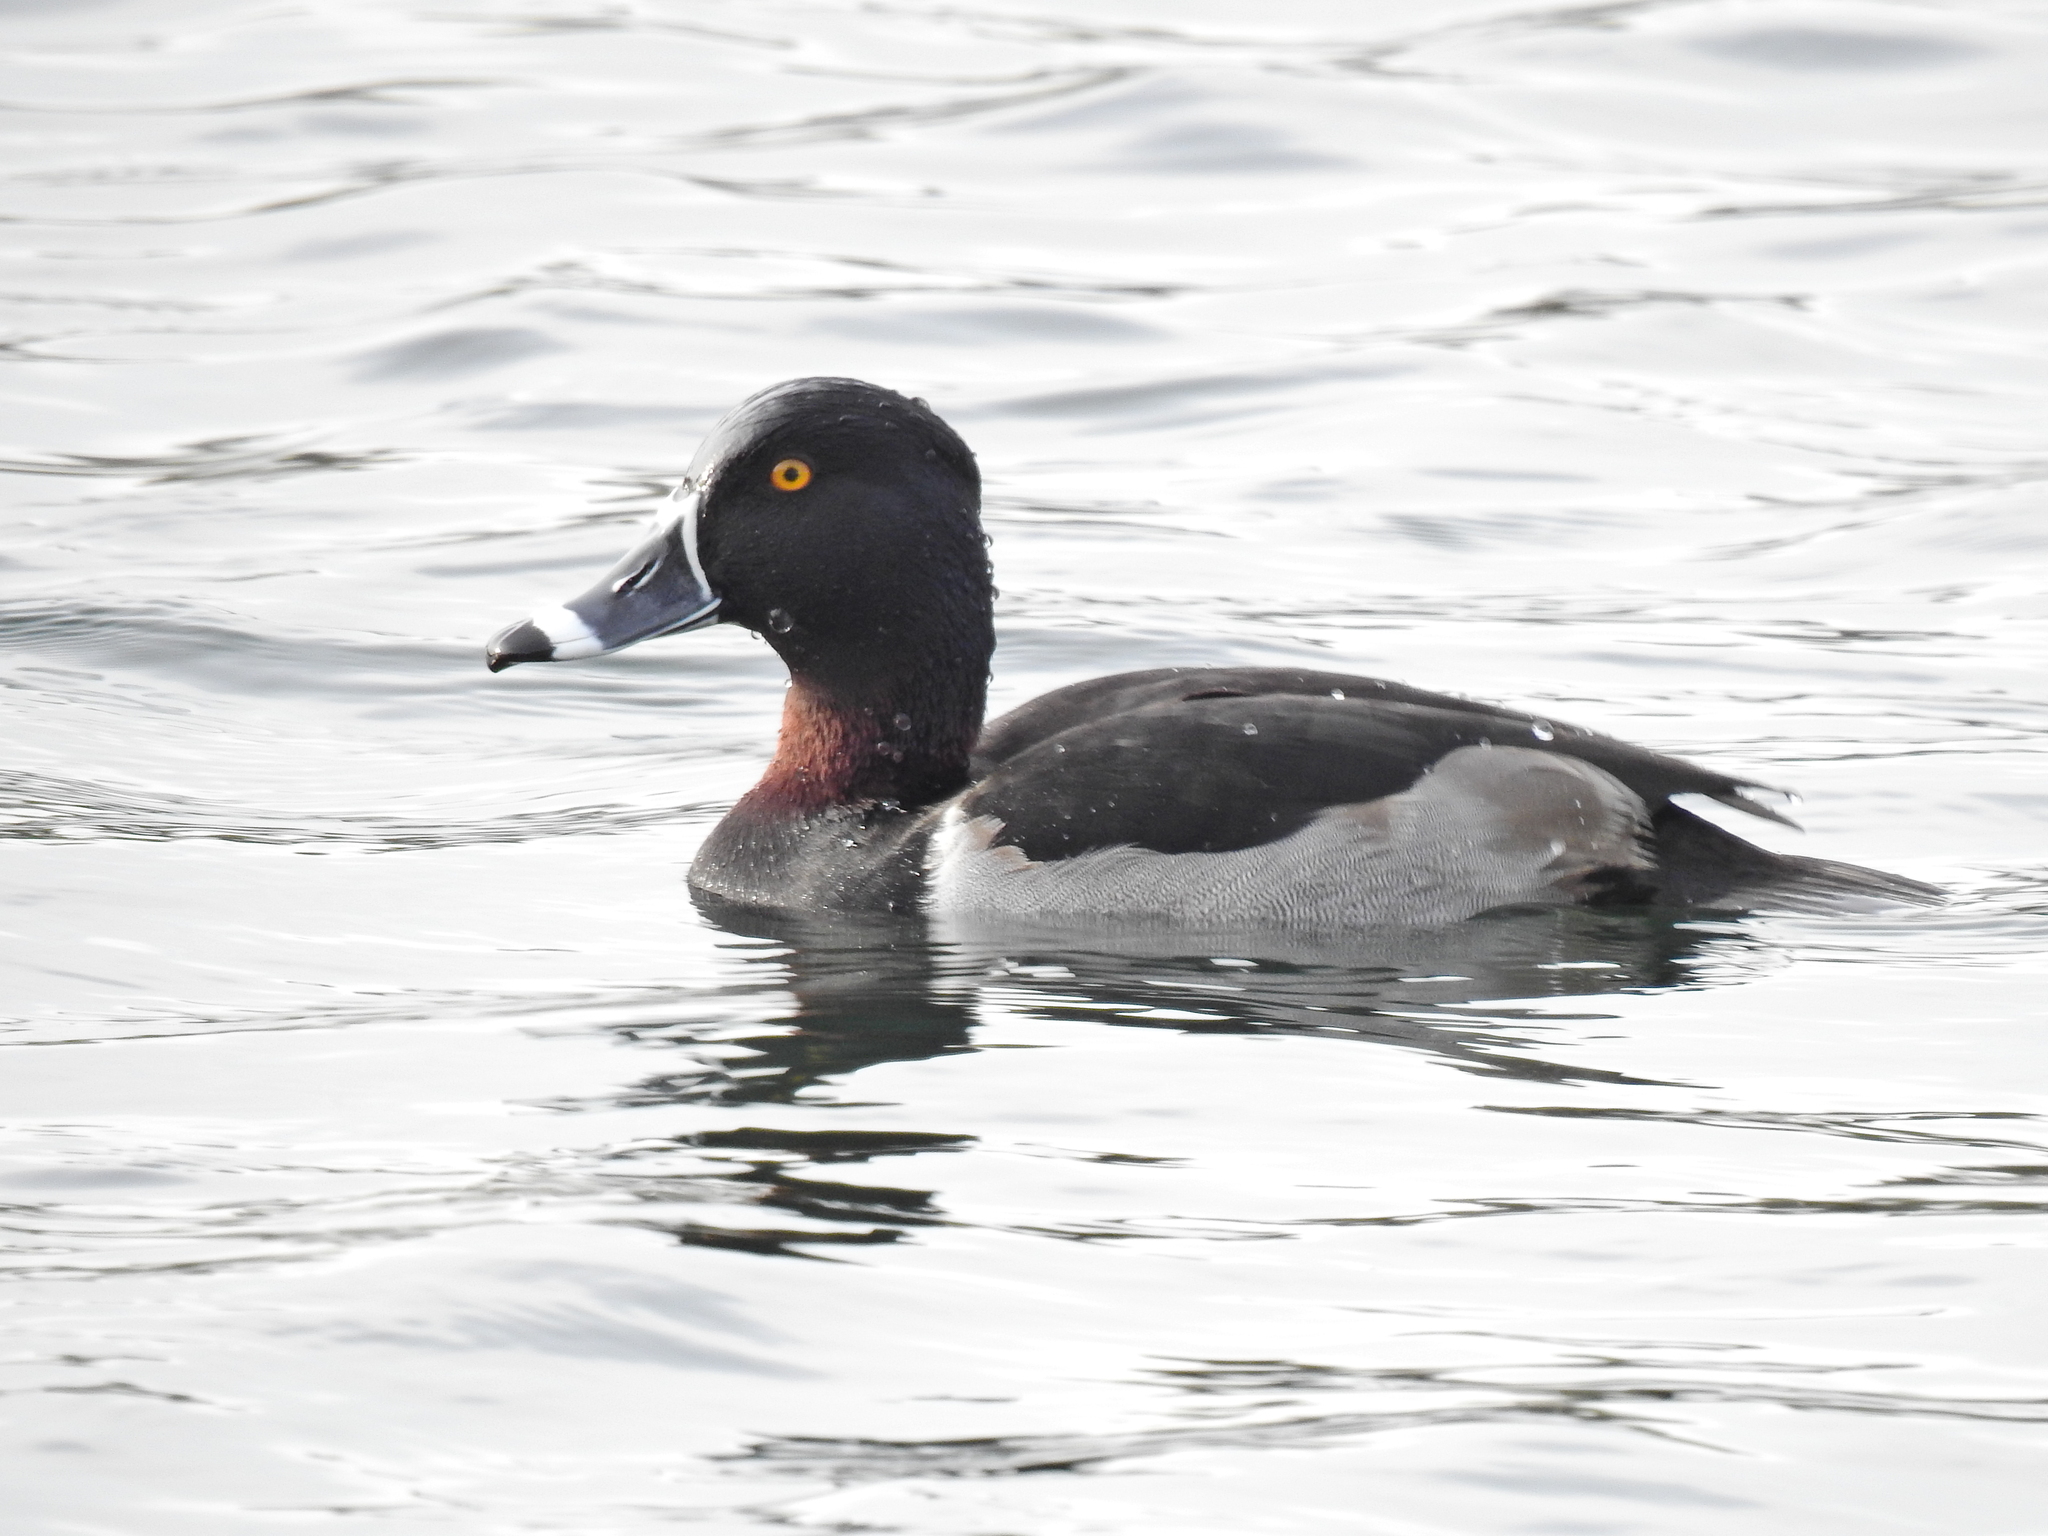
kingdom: Animalia
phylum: Chordata
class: Aves
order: Anseriformes
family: Anatidae
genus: Aythya
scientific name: Aythya collaris
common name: Ring-necked duck
